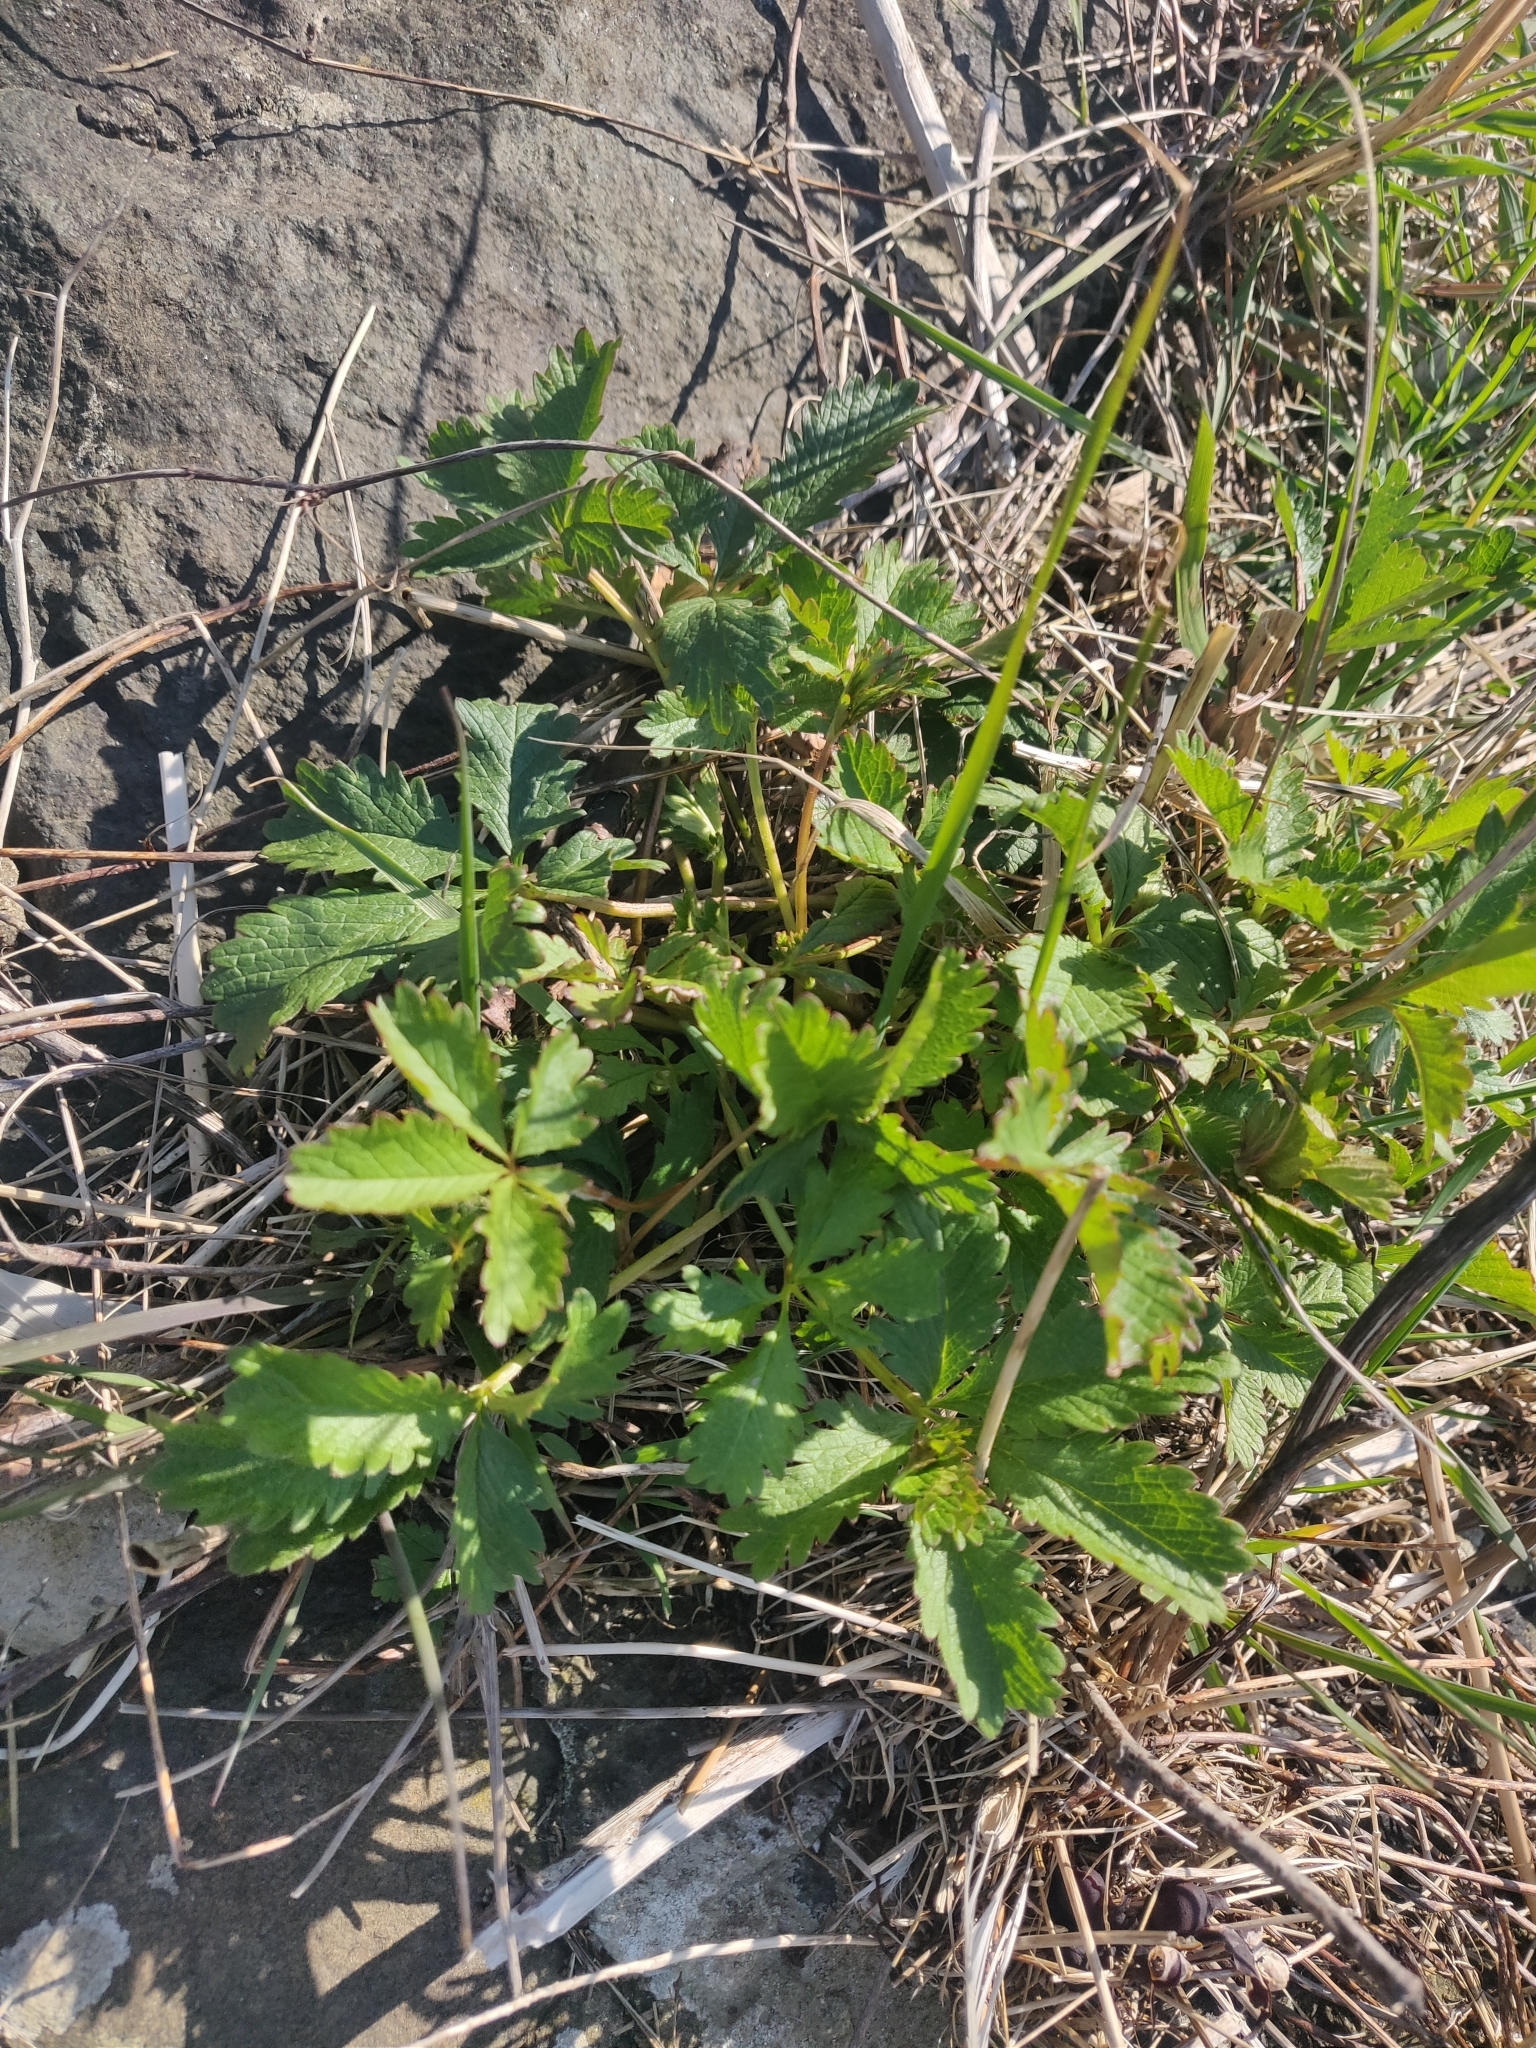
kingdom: Plantae
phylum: Tracheophyta
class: Magnoliopsida
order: Rosales
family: Rosaceae
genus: Potentilla
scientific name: Potentilla reptans
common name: Creeping cinquefoil
